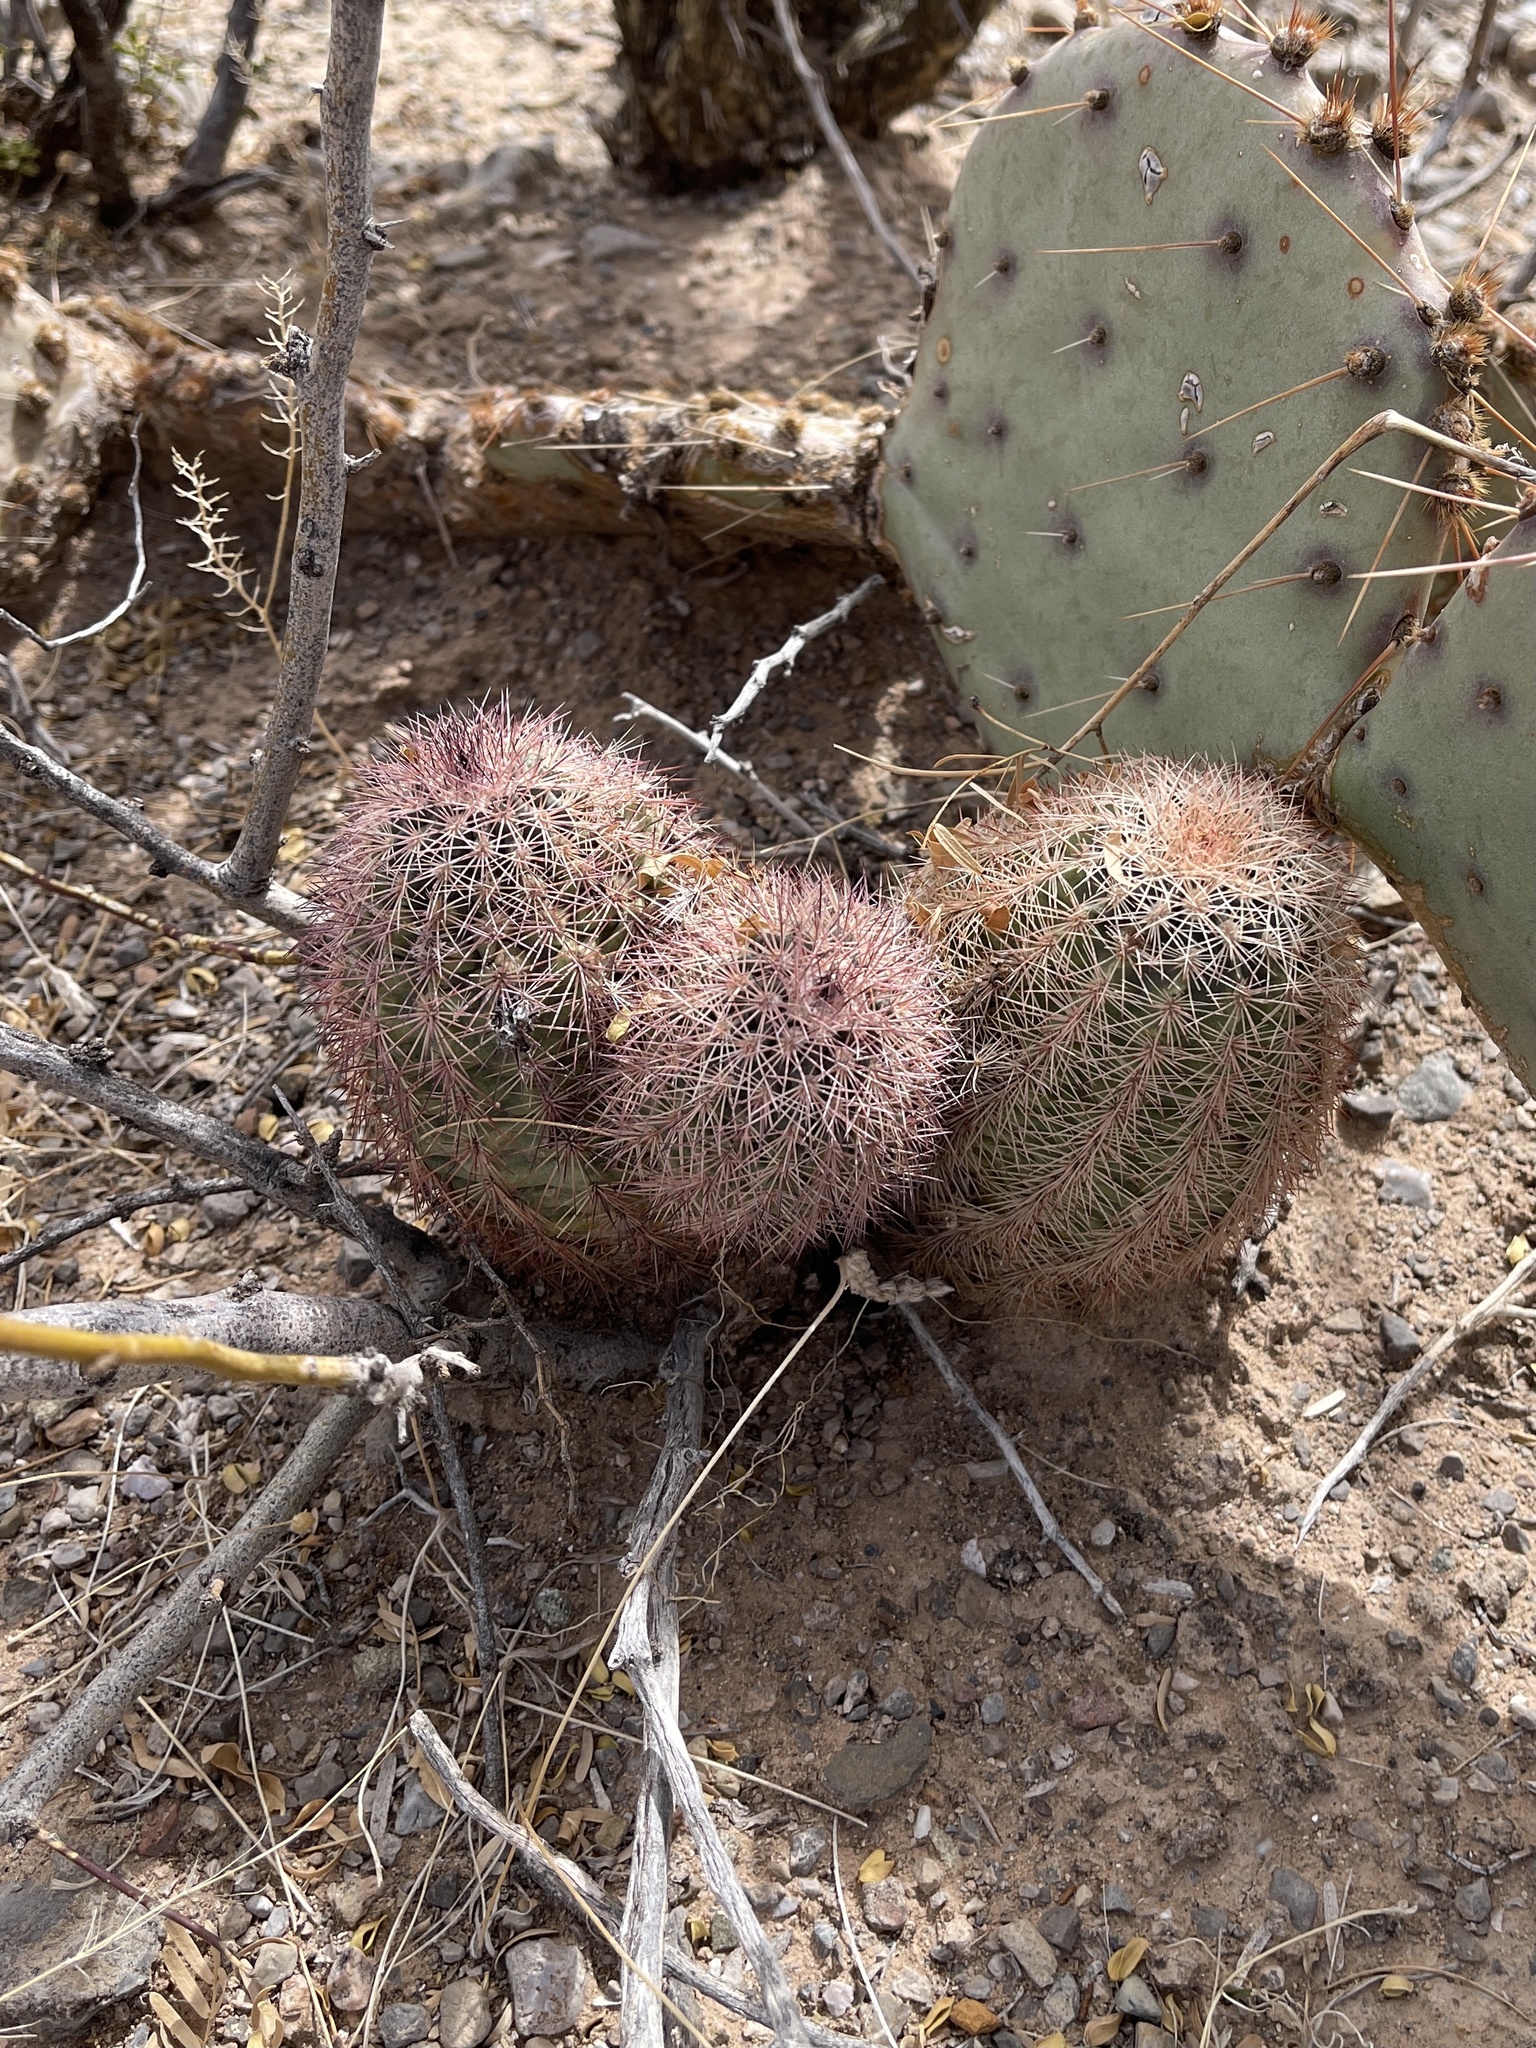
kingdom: Plantae
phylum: Tracheophyta
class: Magnoliopsida
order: Caryophyllales
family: Cactaceae
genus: Echinocereus
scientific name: Echinocereus dasyacanthus
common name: Spiny hedgehog cactus
